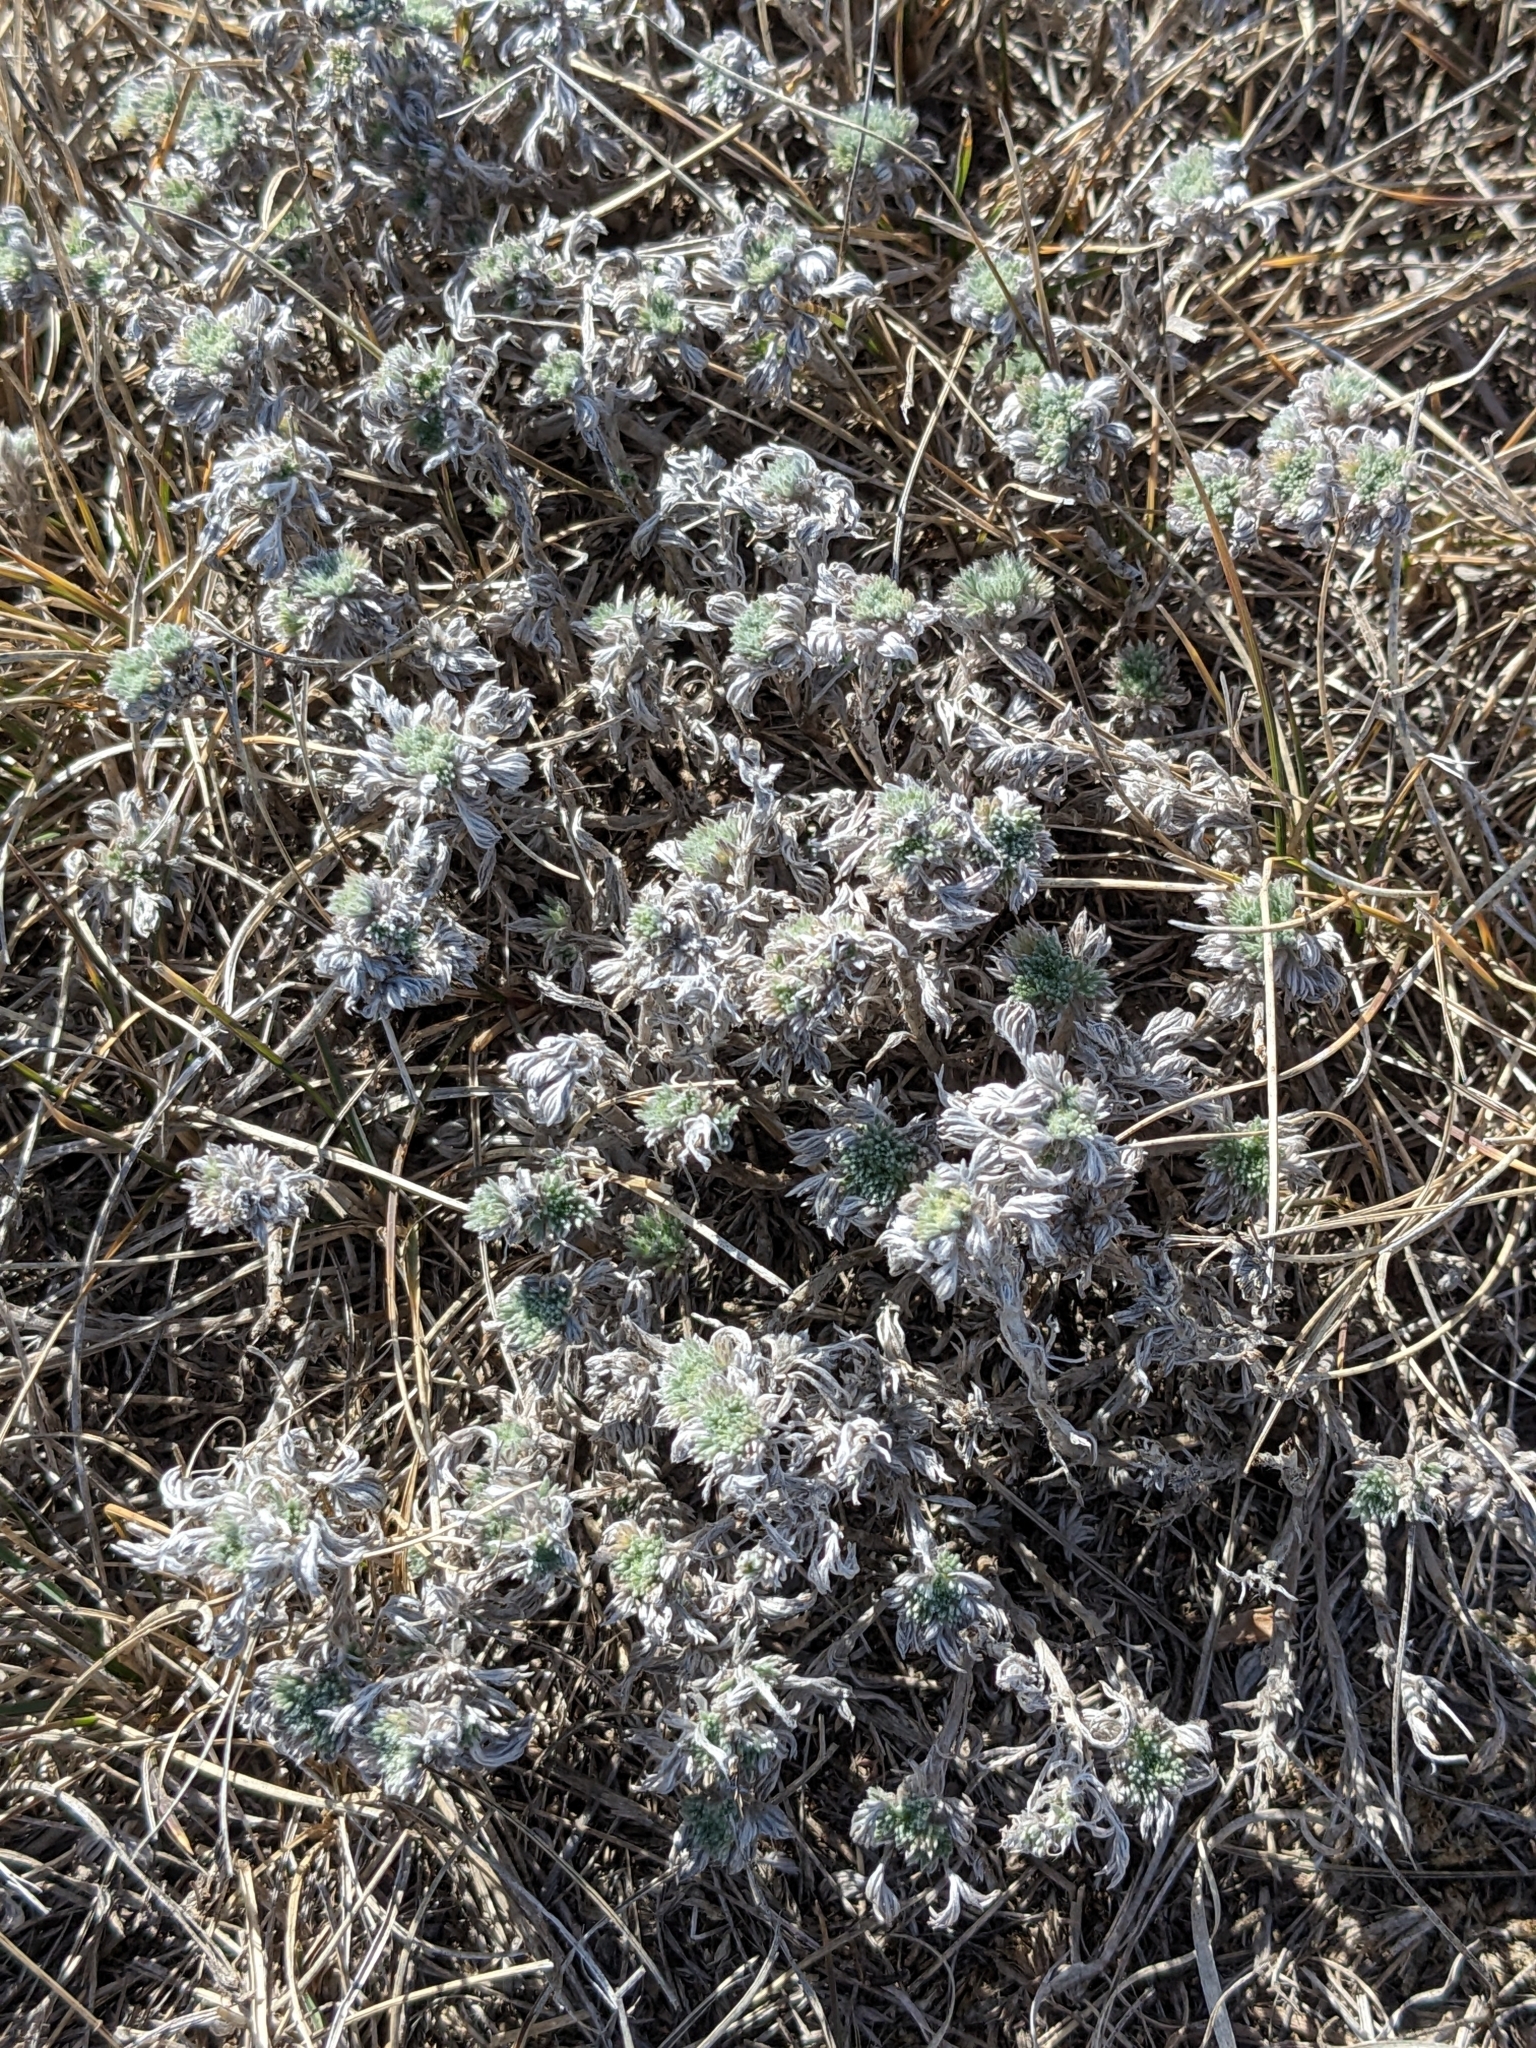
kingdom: Plantae
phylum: Tracheophyta
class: Magnoliopsida
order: Asterales
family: Asteraceae
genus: Artemisia
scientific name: Artemisia frigida
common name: Prairie sagewort
